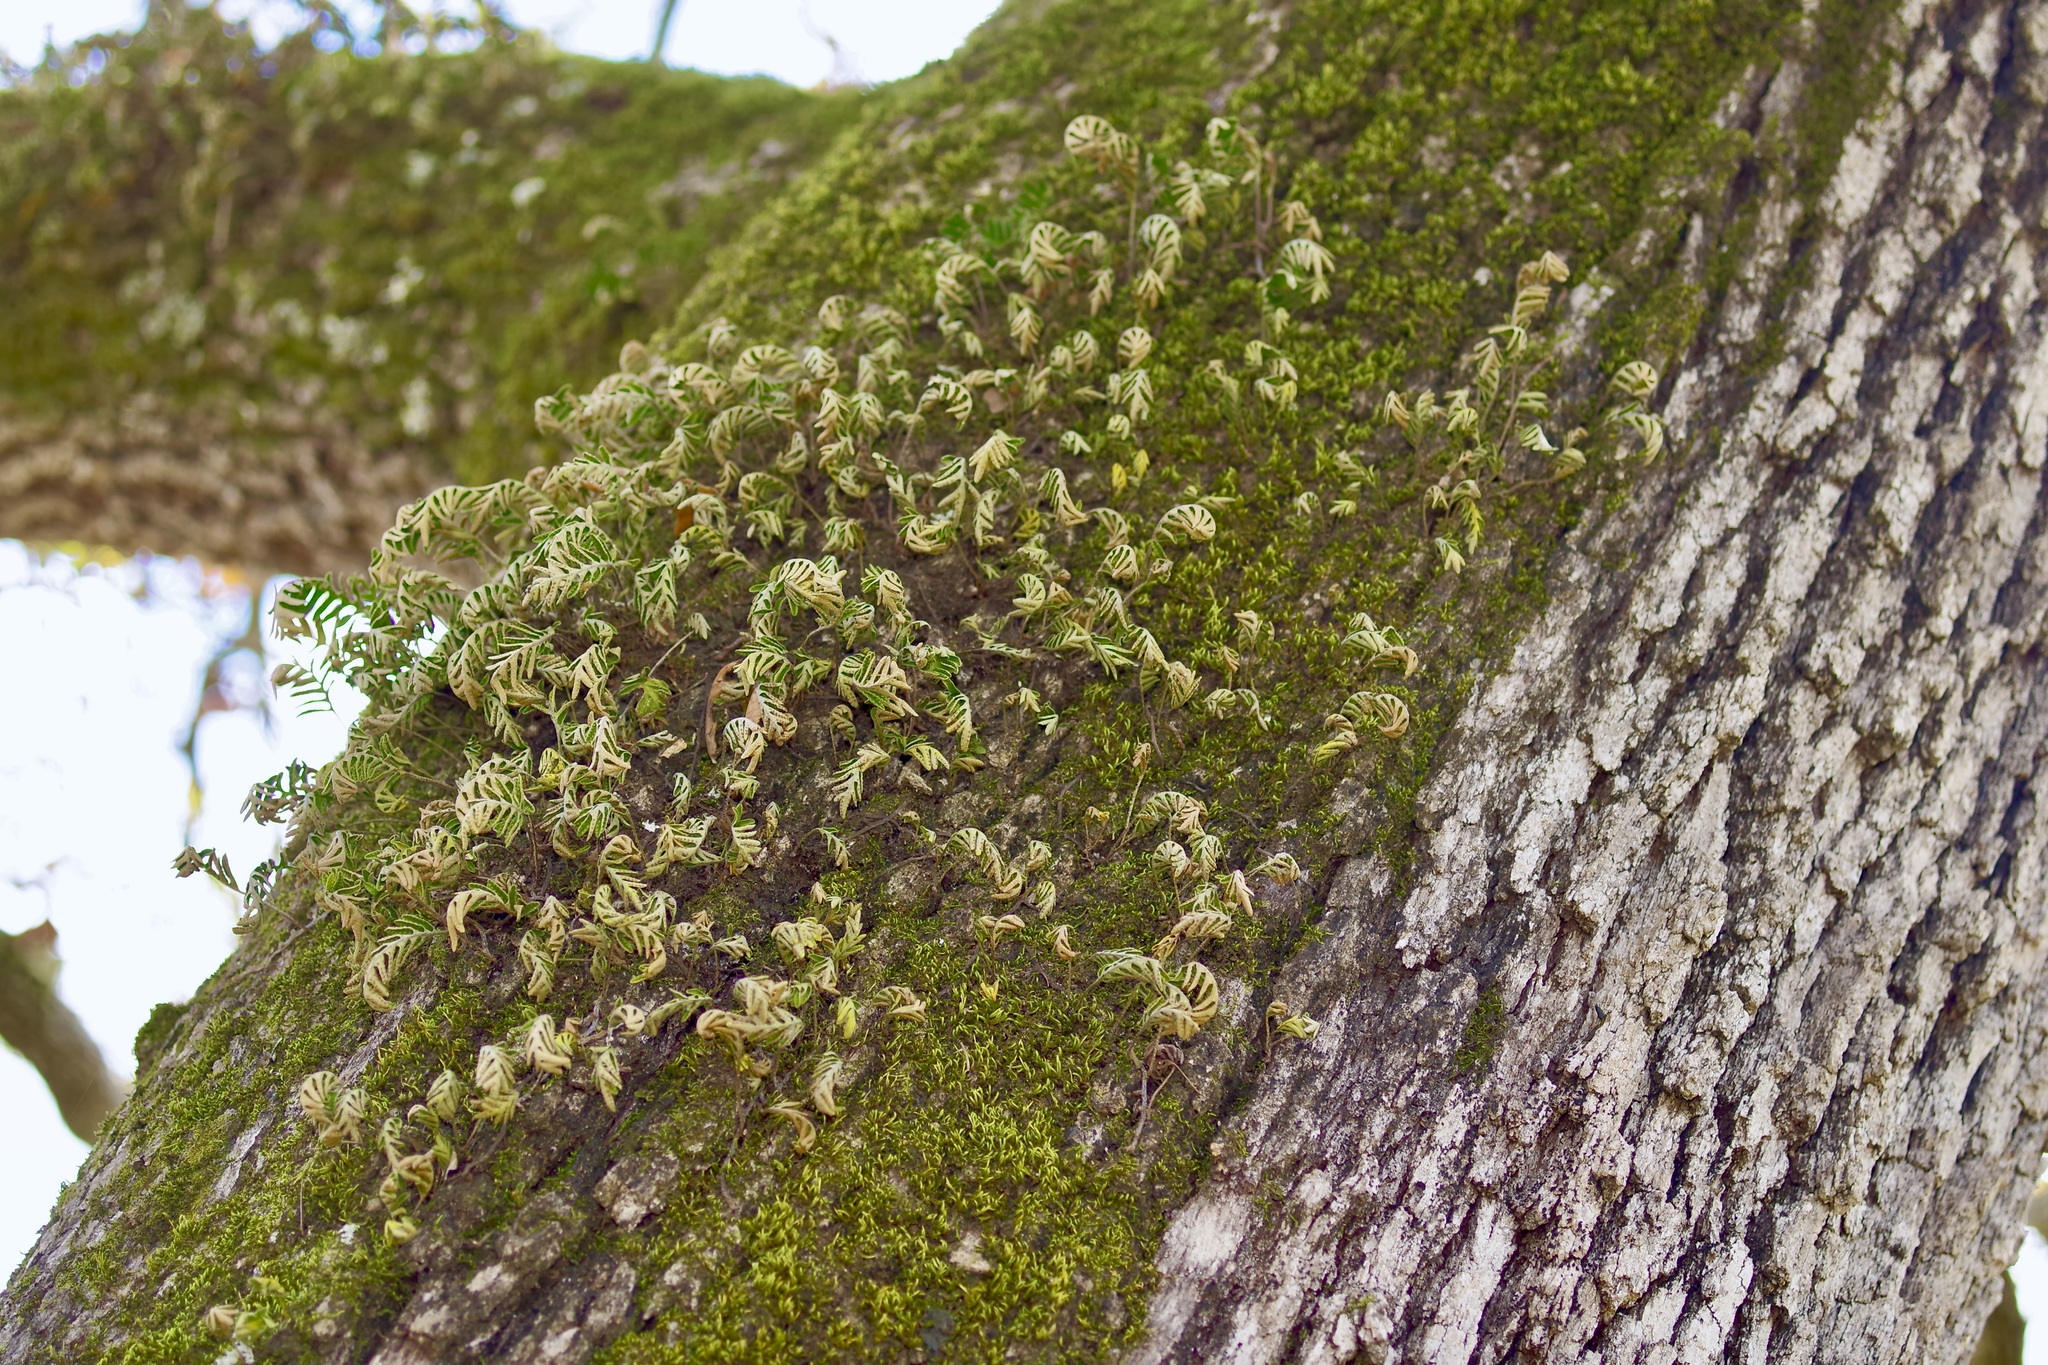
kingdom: Plantae
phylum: Tracheophyta
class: Polypodiopsida
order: Polypodiales
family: Polypodiaceae
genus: Pleopeltis
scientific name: Pleopeltis michauxiana
